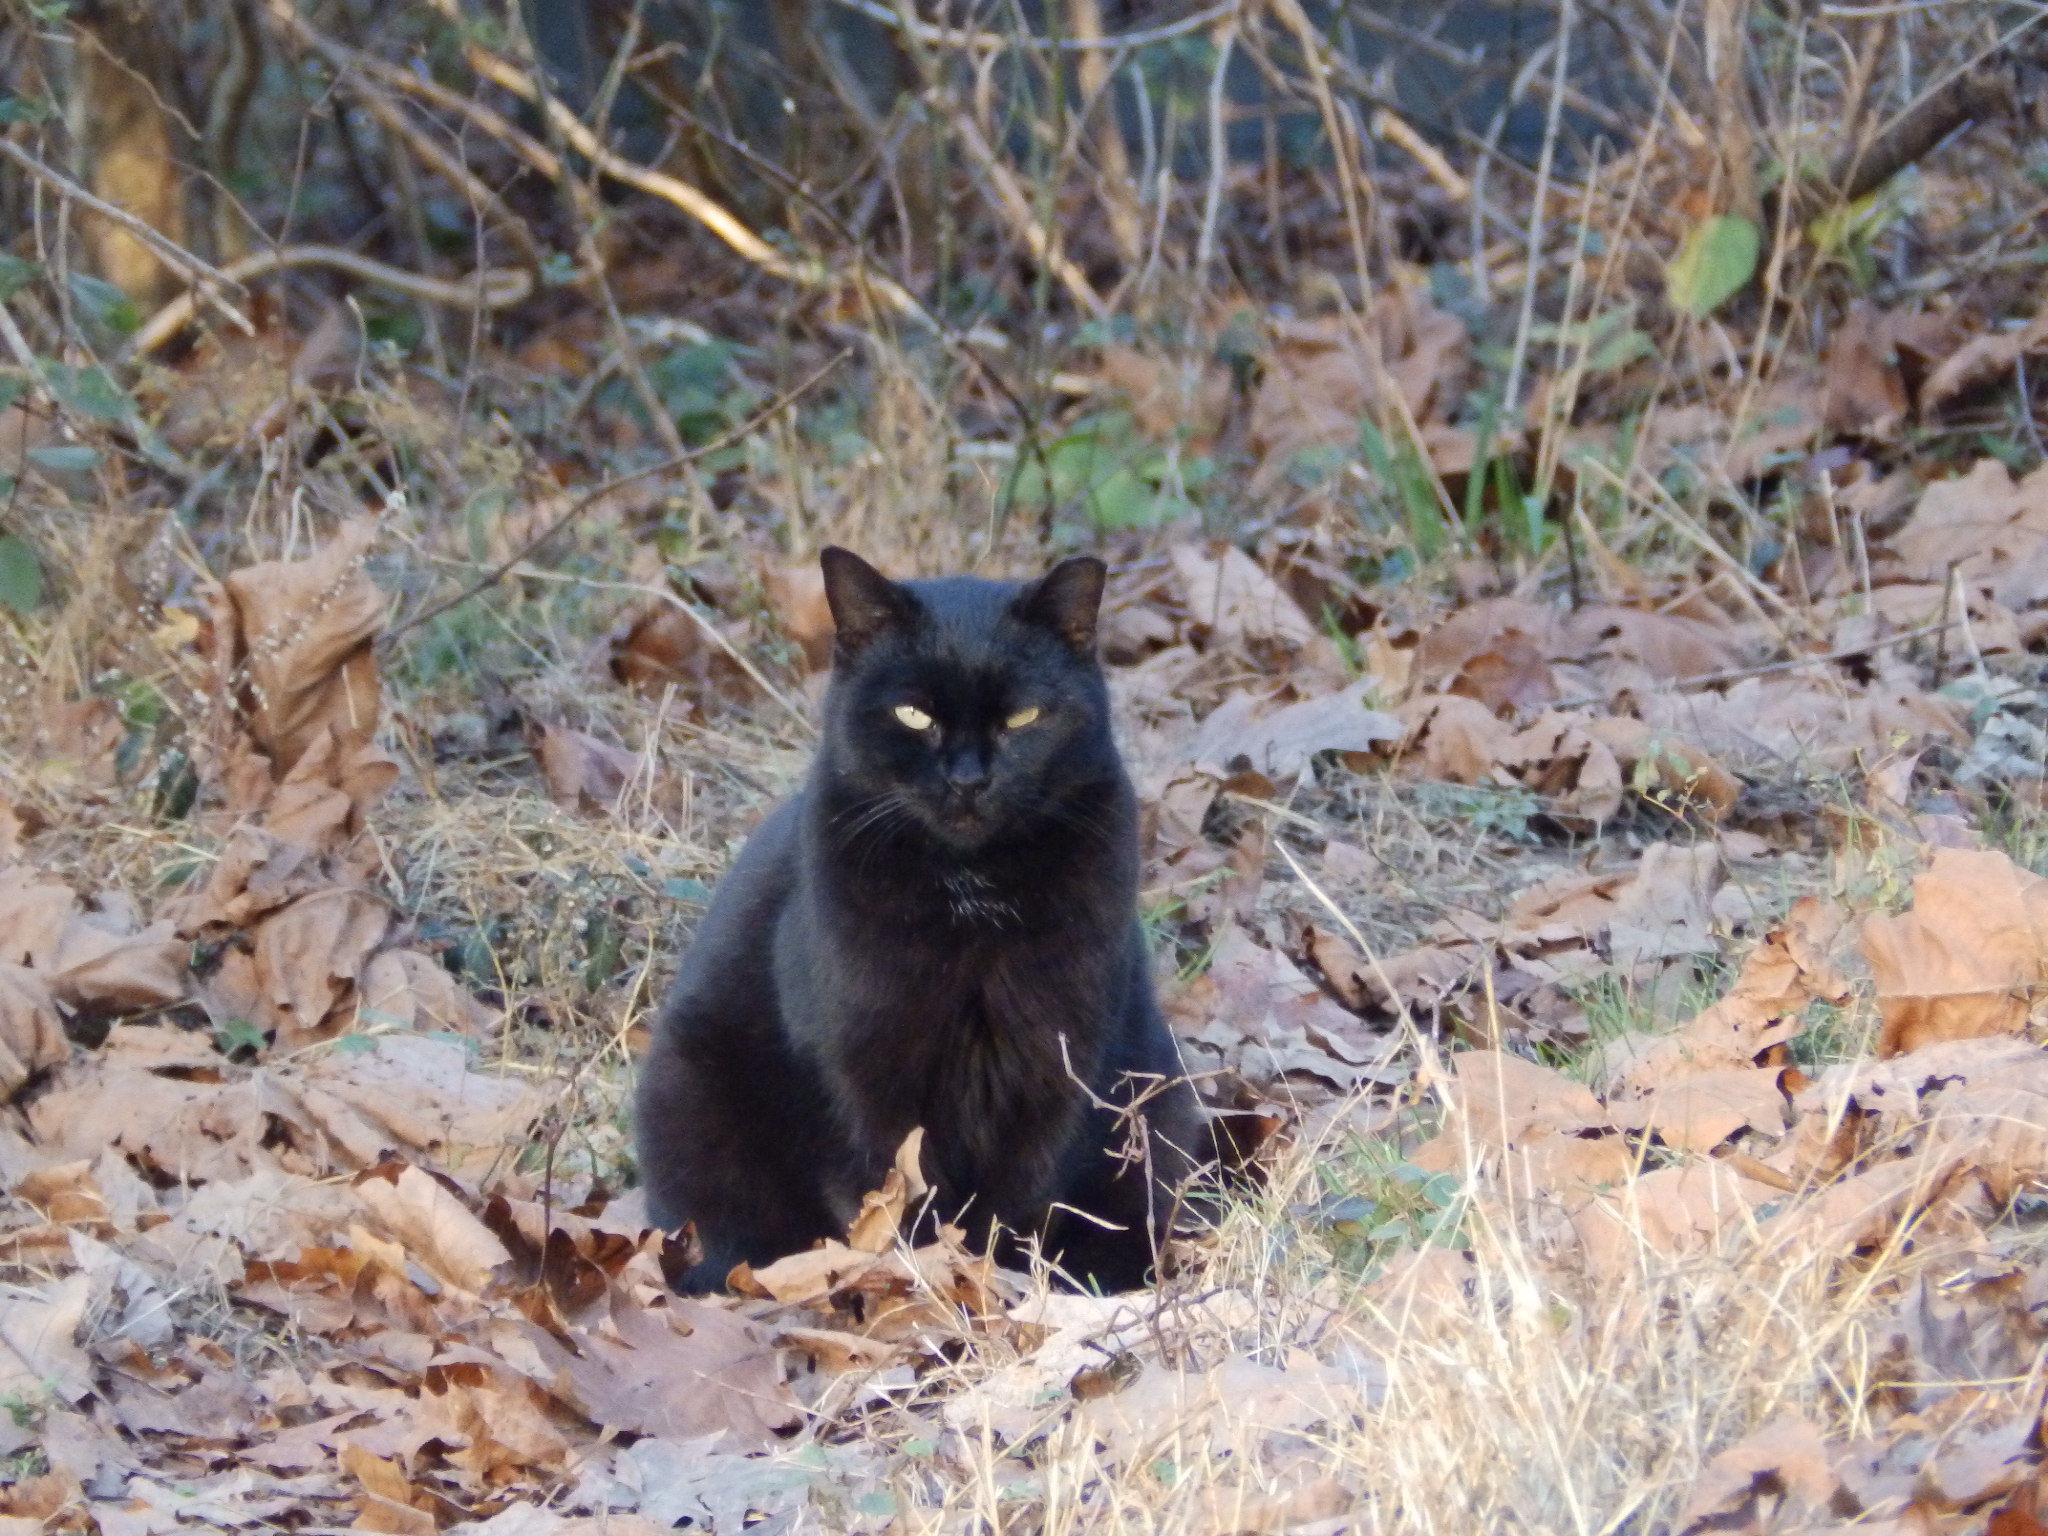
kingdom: Animalia
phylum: Chordata
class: Mammalia
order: Carnivora
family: Felidae
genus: Felis
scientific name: Felis catus
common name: Domestic cat
